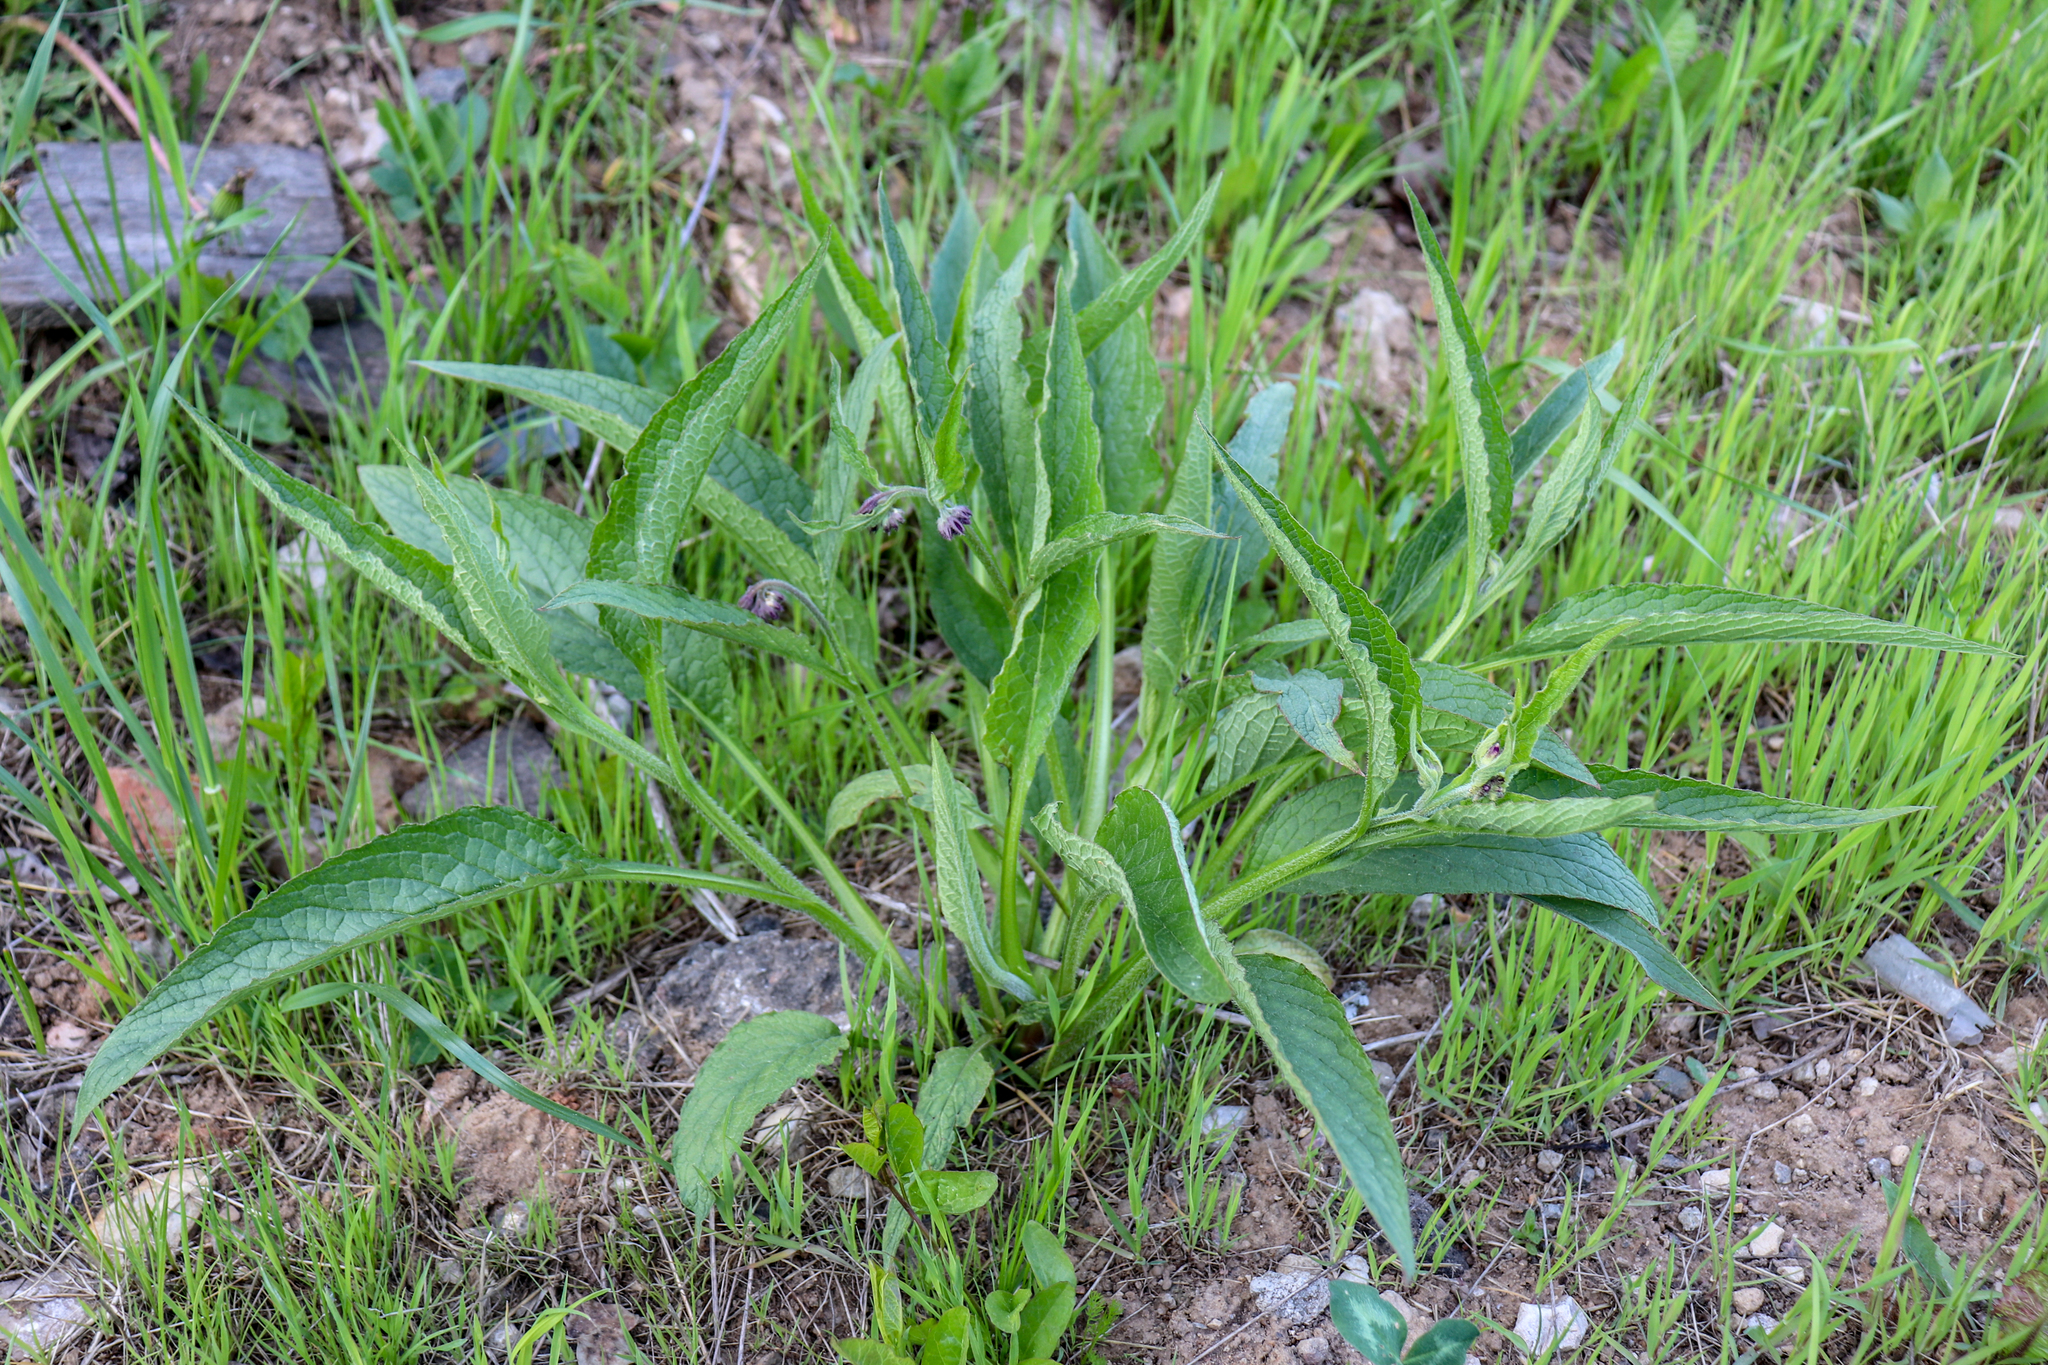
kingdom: Plantae
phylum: Tracheophyta
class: Magnoliopsida
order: Boraginales
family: Boraginaceae
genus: Symphytum
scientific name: Symphytum officinale
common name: Common comfrey
